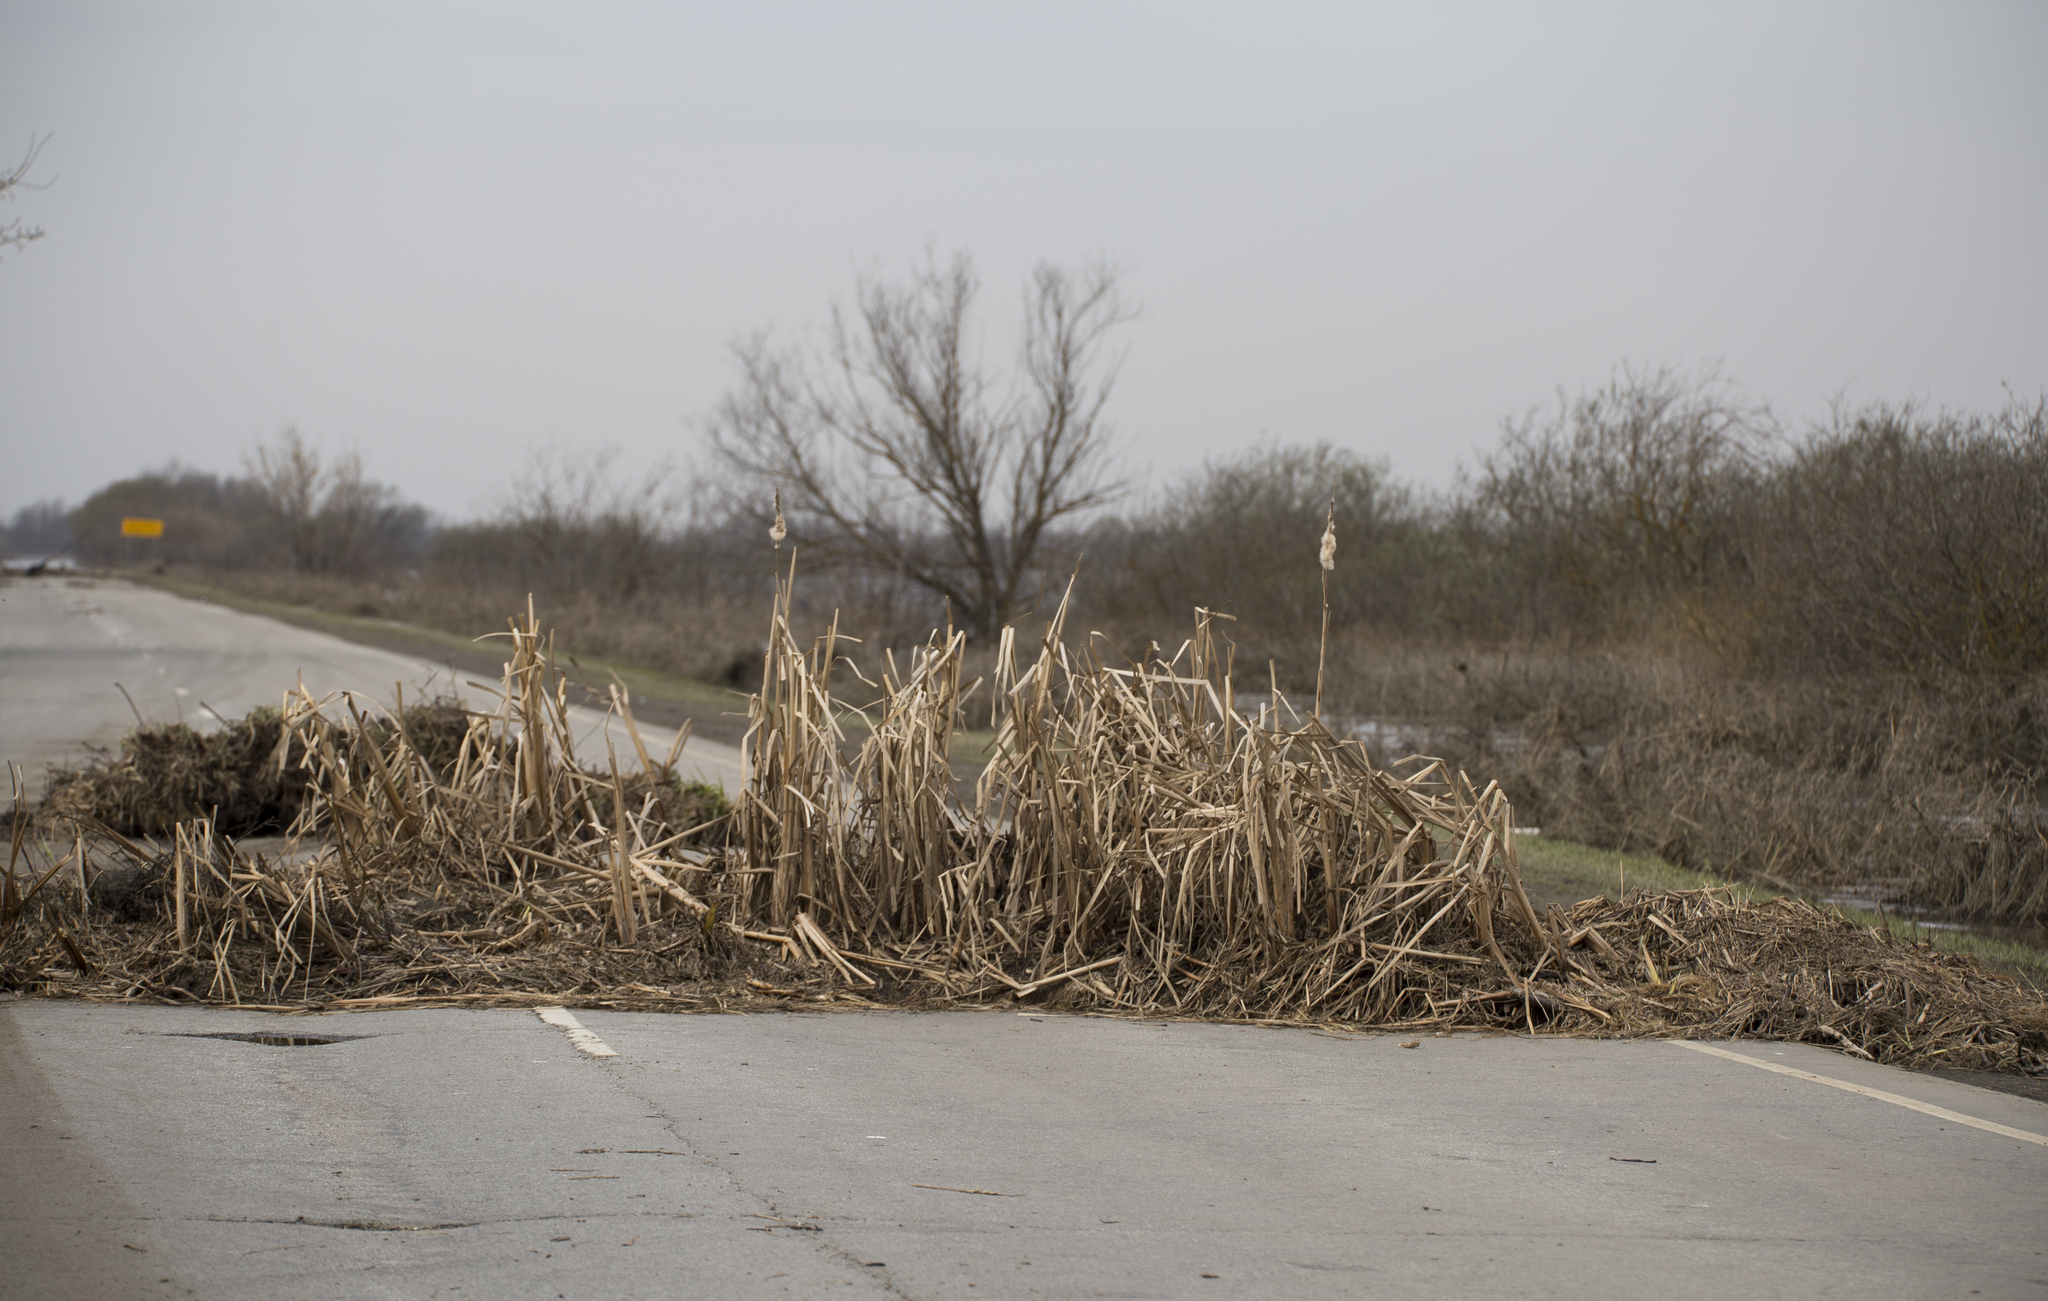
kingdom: Plantae
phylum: Tracheophyta
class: Liliopsida
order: Poales
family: Typhaceae
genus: Typha
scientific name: Typha latifolia
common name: Broadleaf cattail
